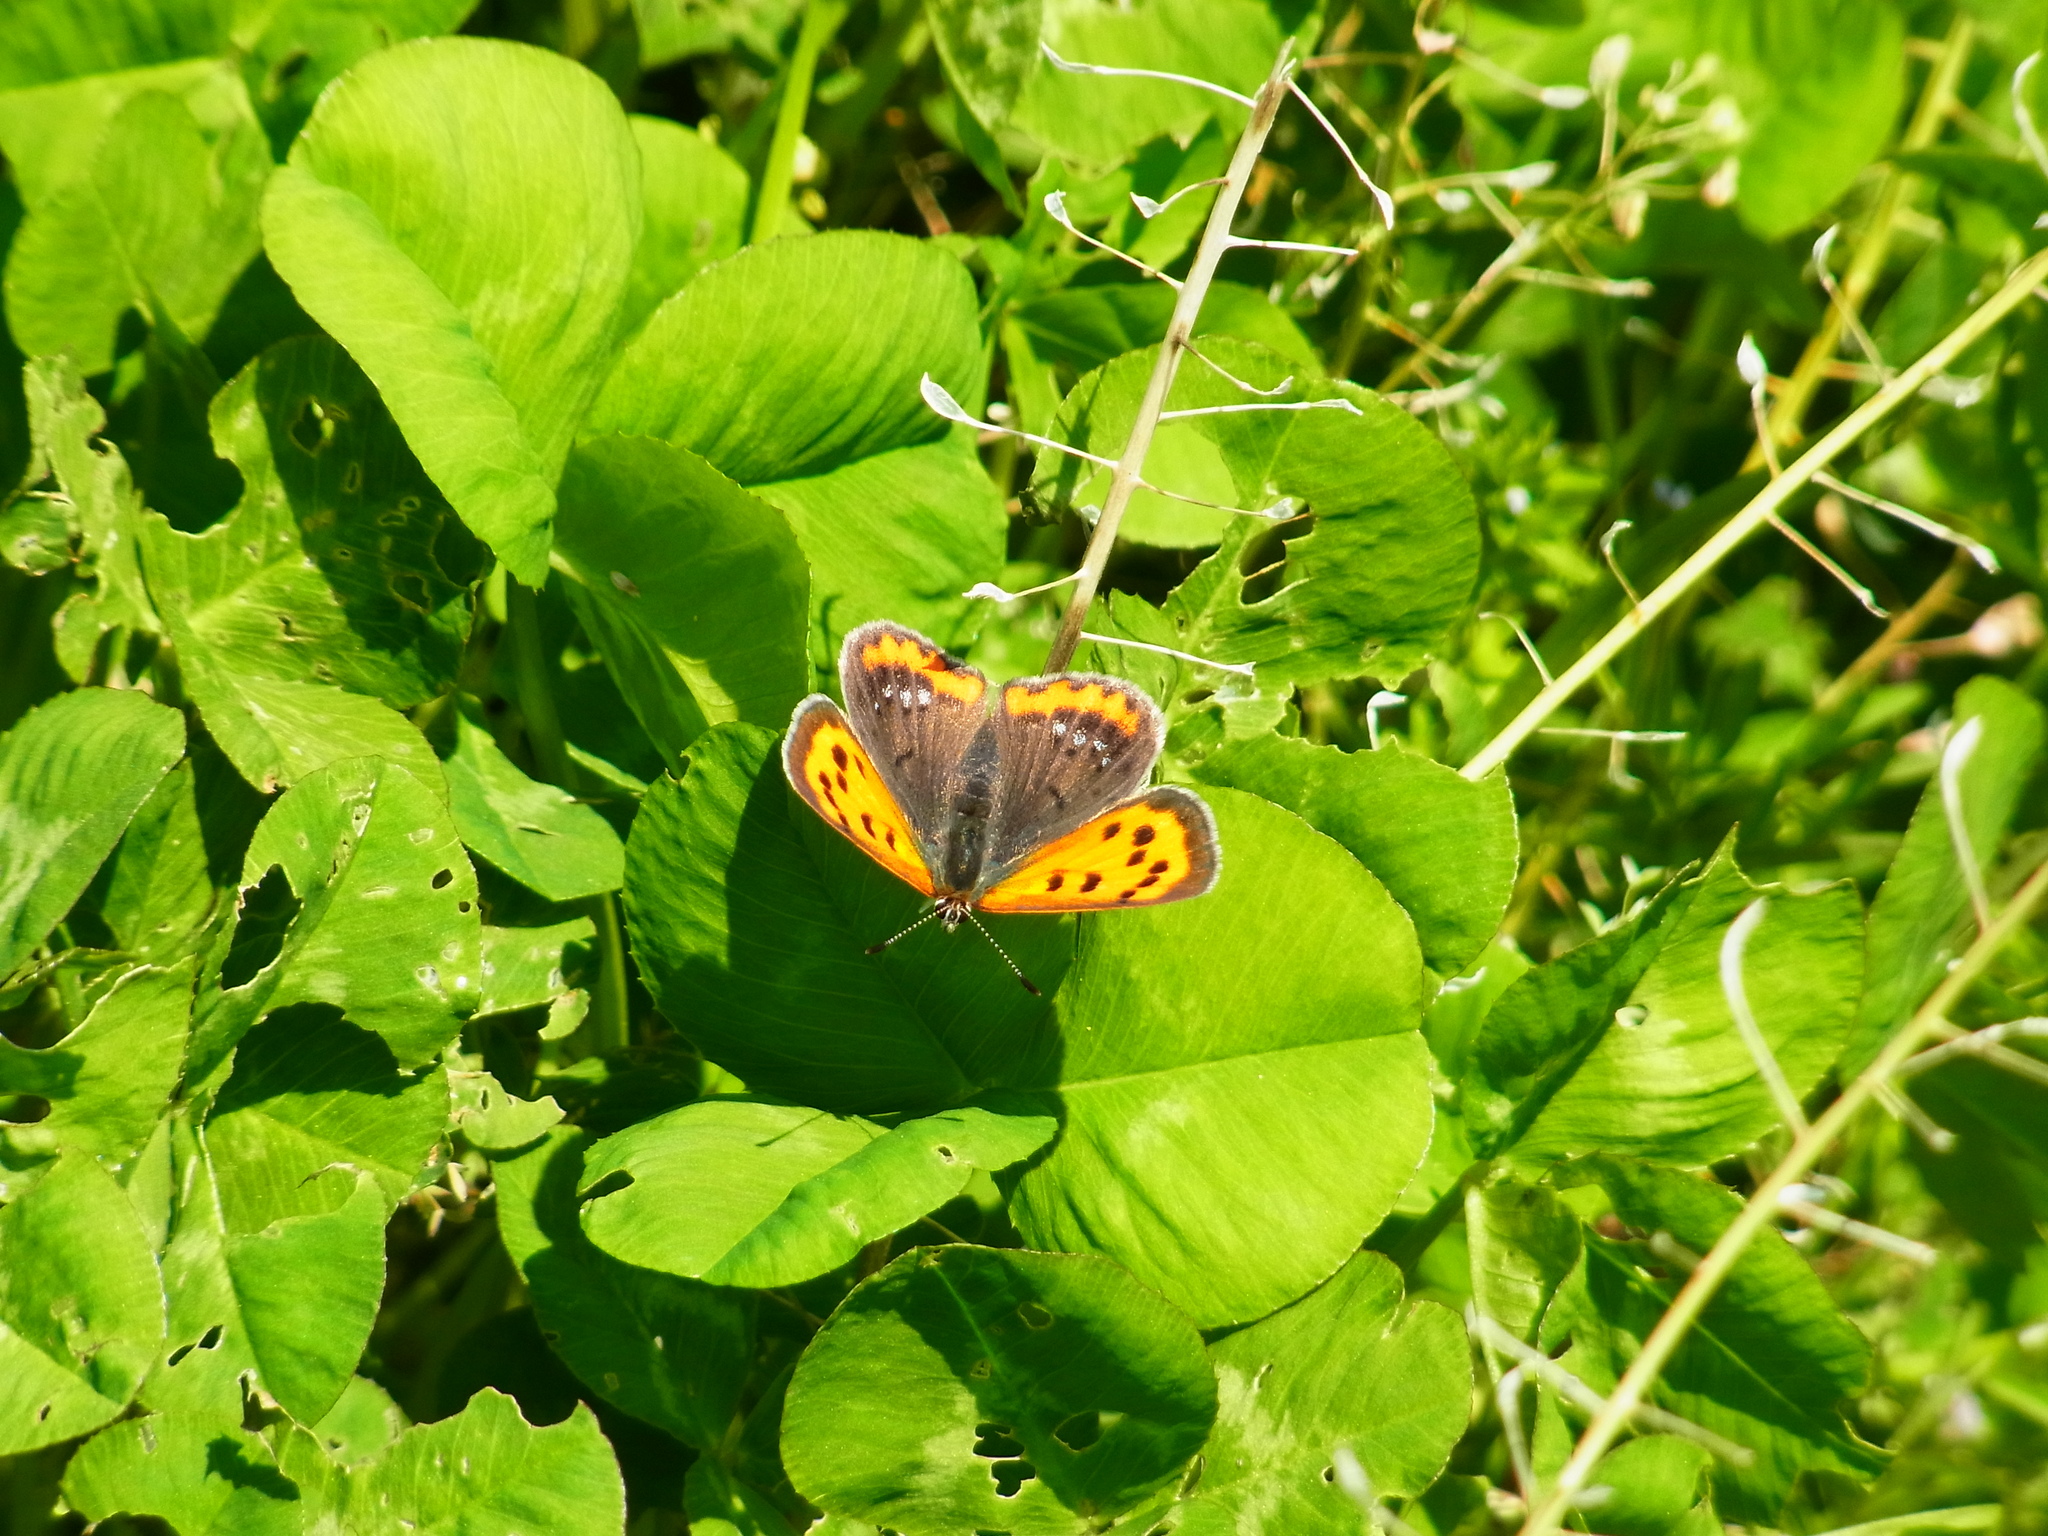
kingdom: Animalia
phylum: Arthropoda
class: Insecta
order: Lepidoptera
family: Lycaenidae
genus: Lycaena
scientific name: Lycaena phlaeas
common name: Small copper
